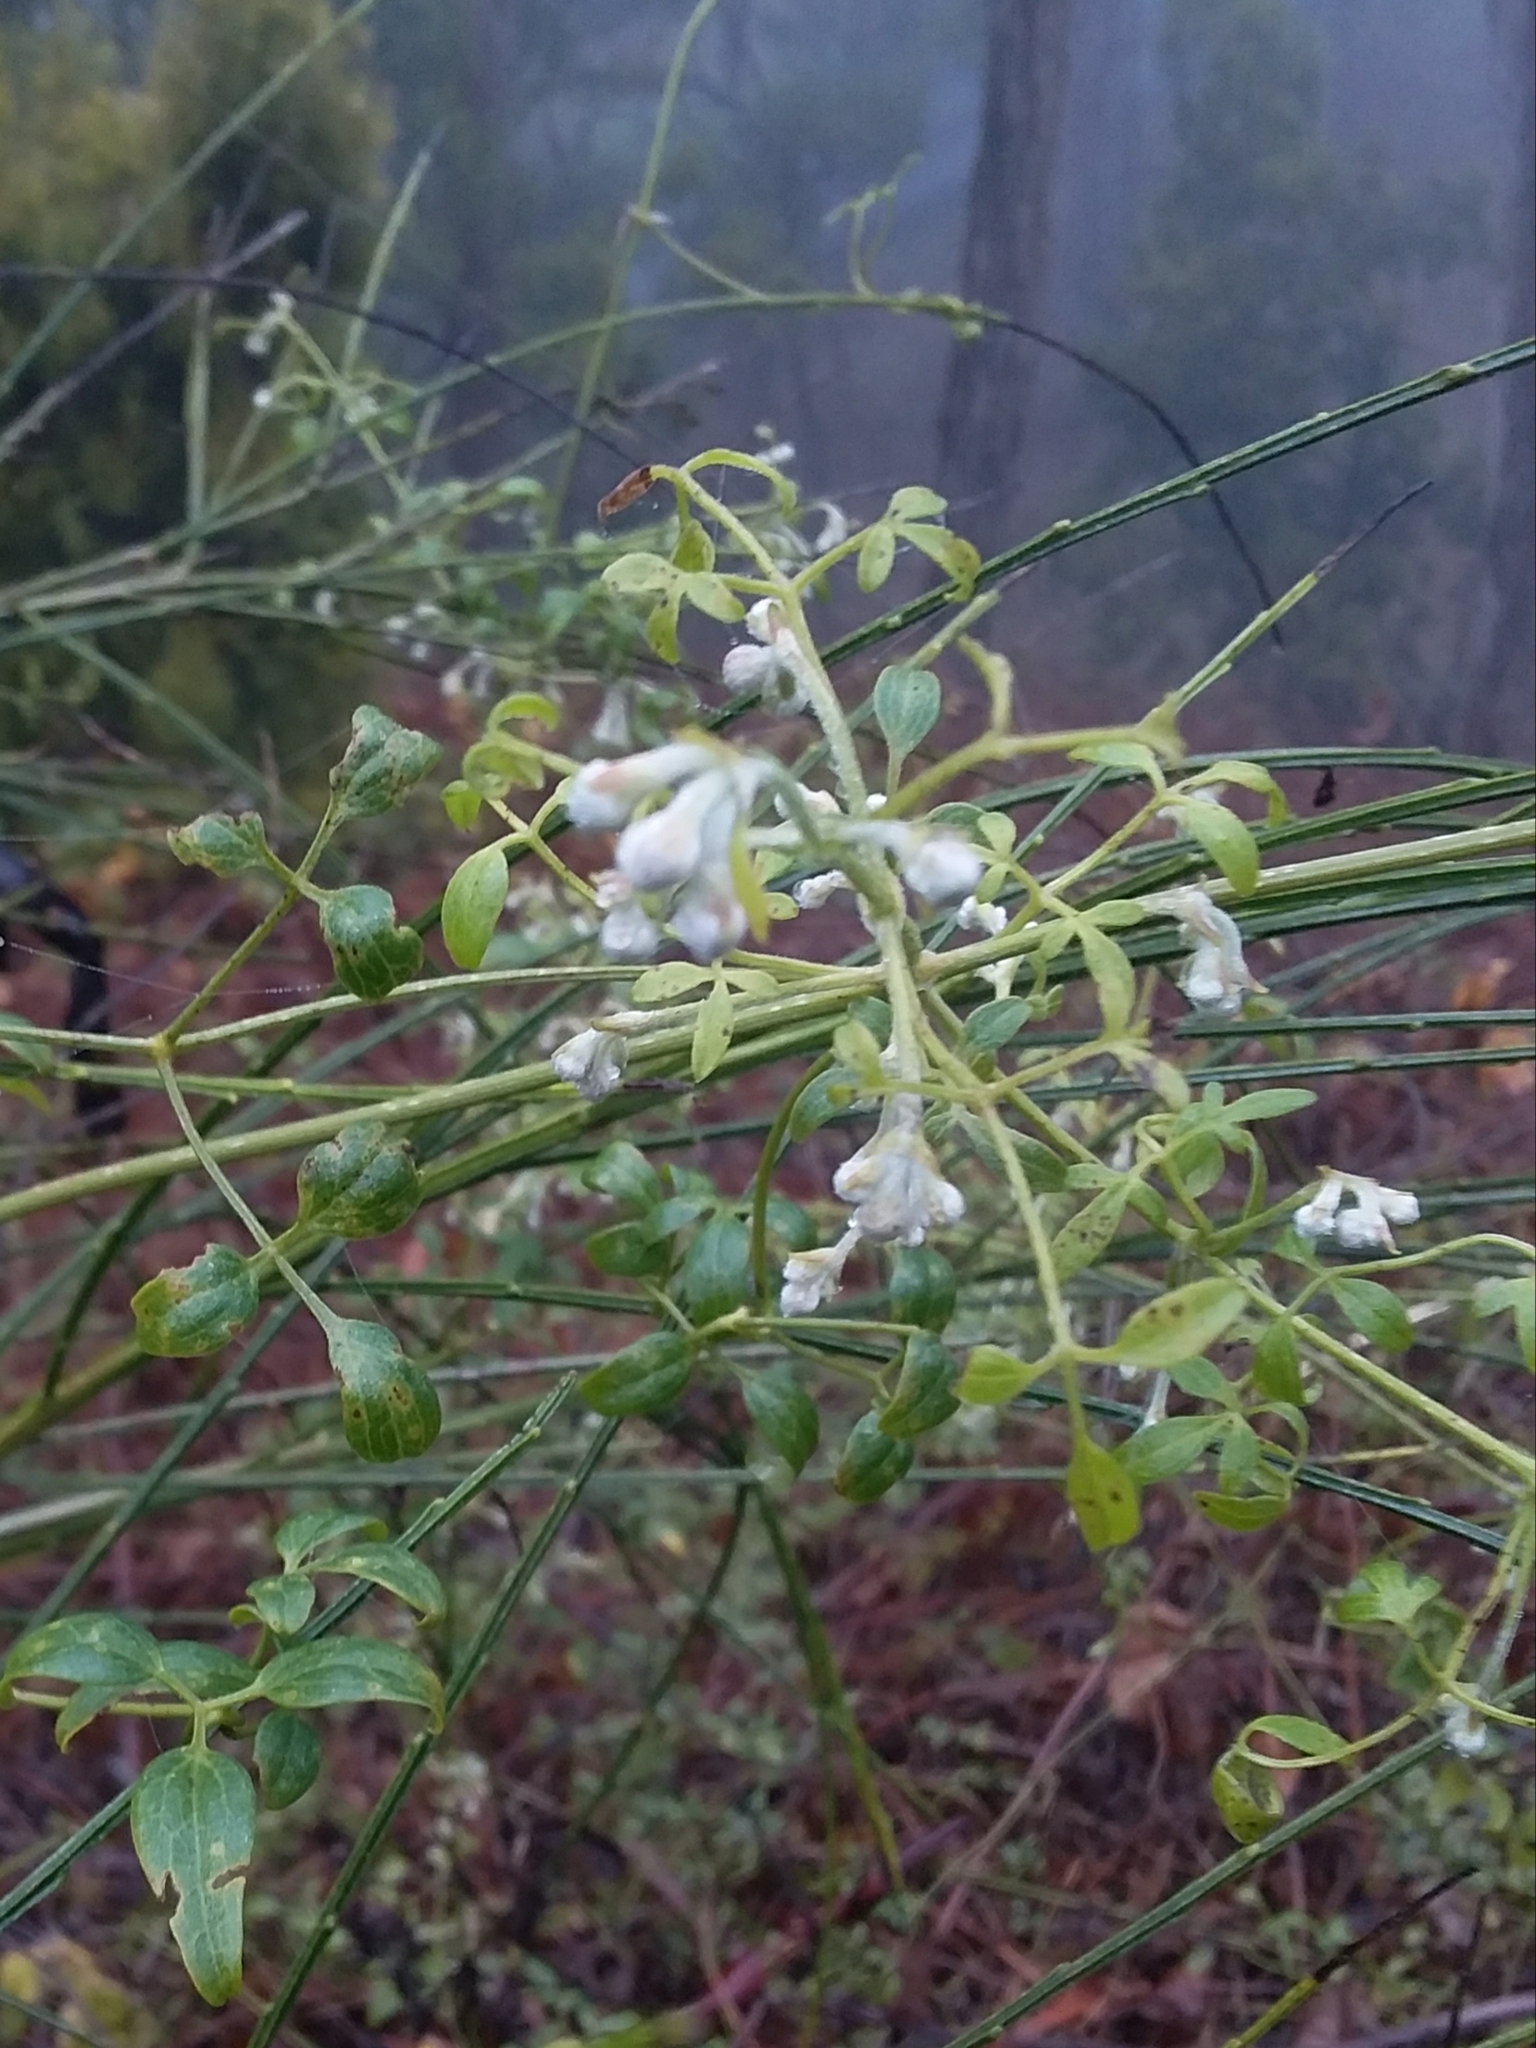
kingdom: Plantae
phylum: Tracheophyta
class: Magnoliopsida
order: Ranunculales
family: Ranunculaceae
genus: Clematis
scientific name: Clematis microphylla
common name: Headachevine
